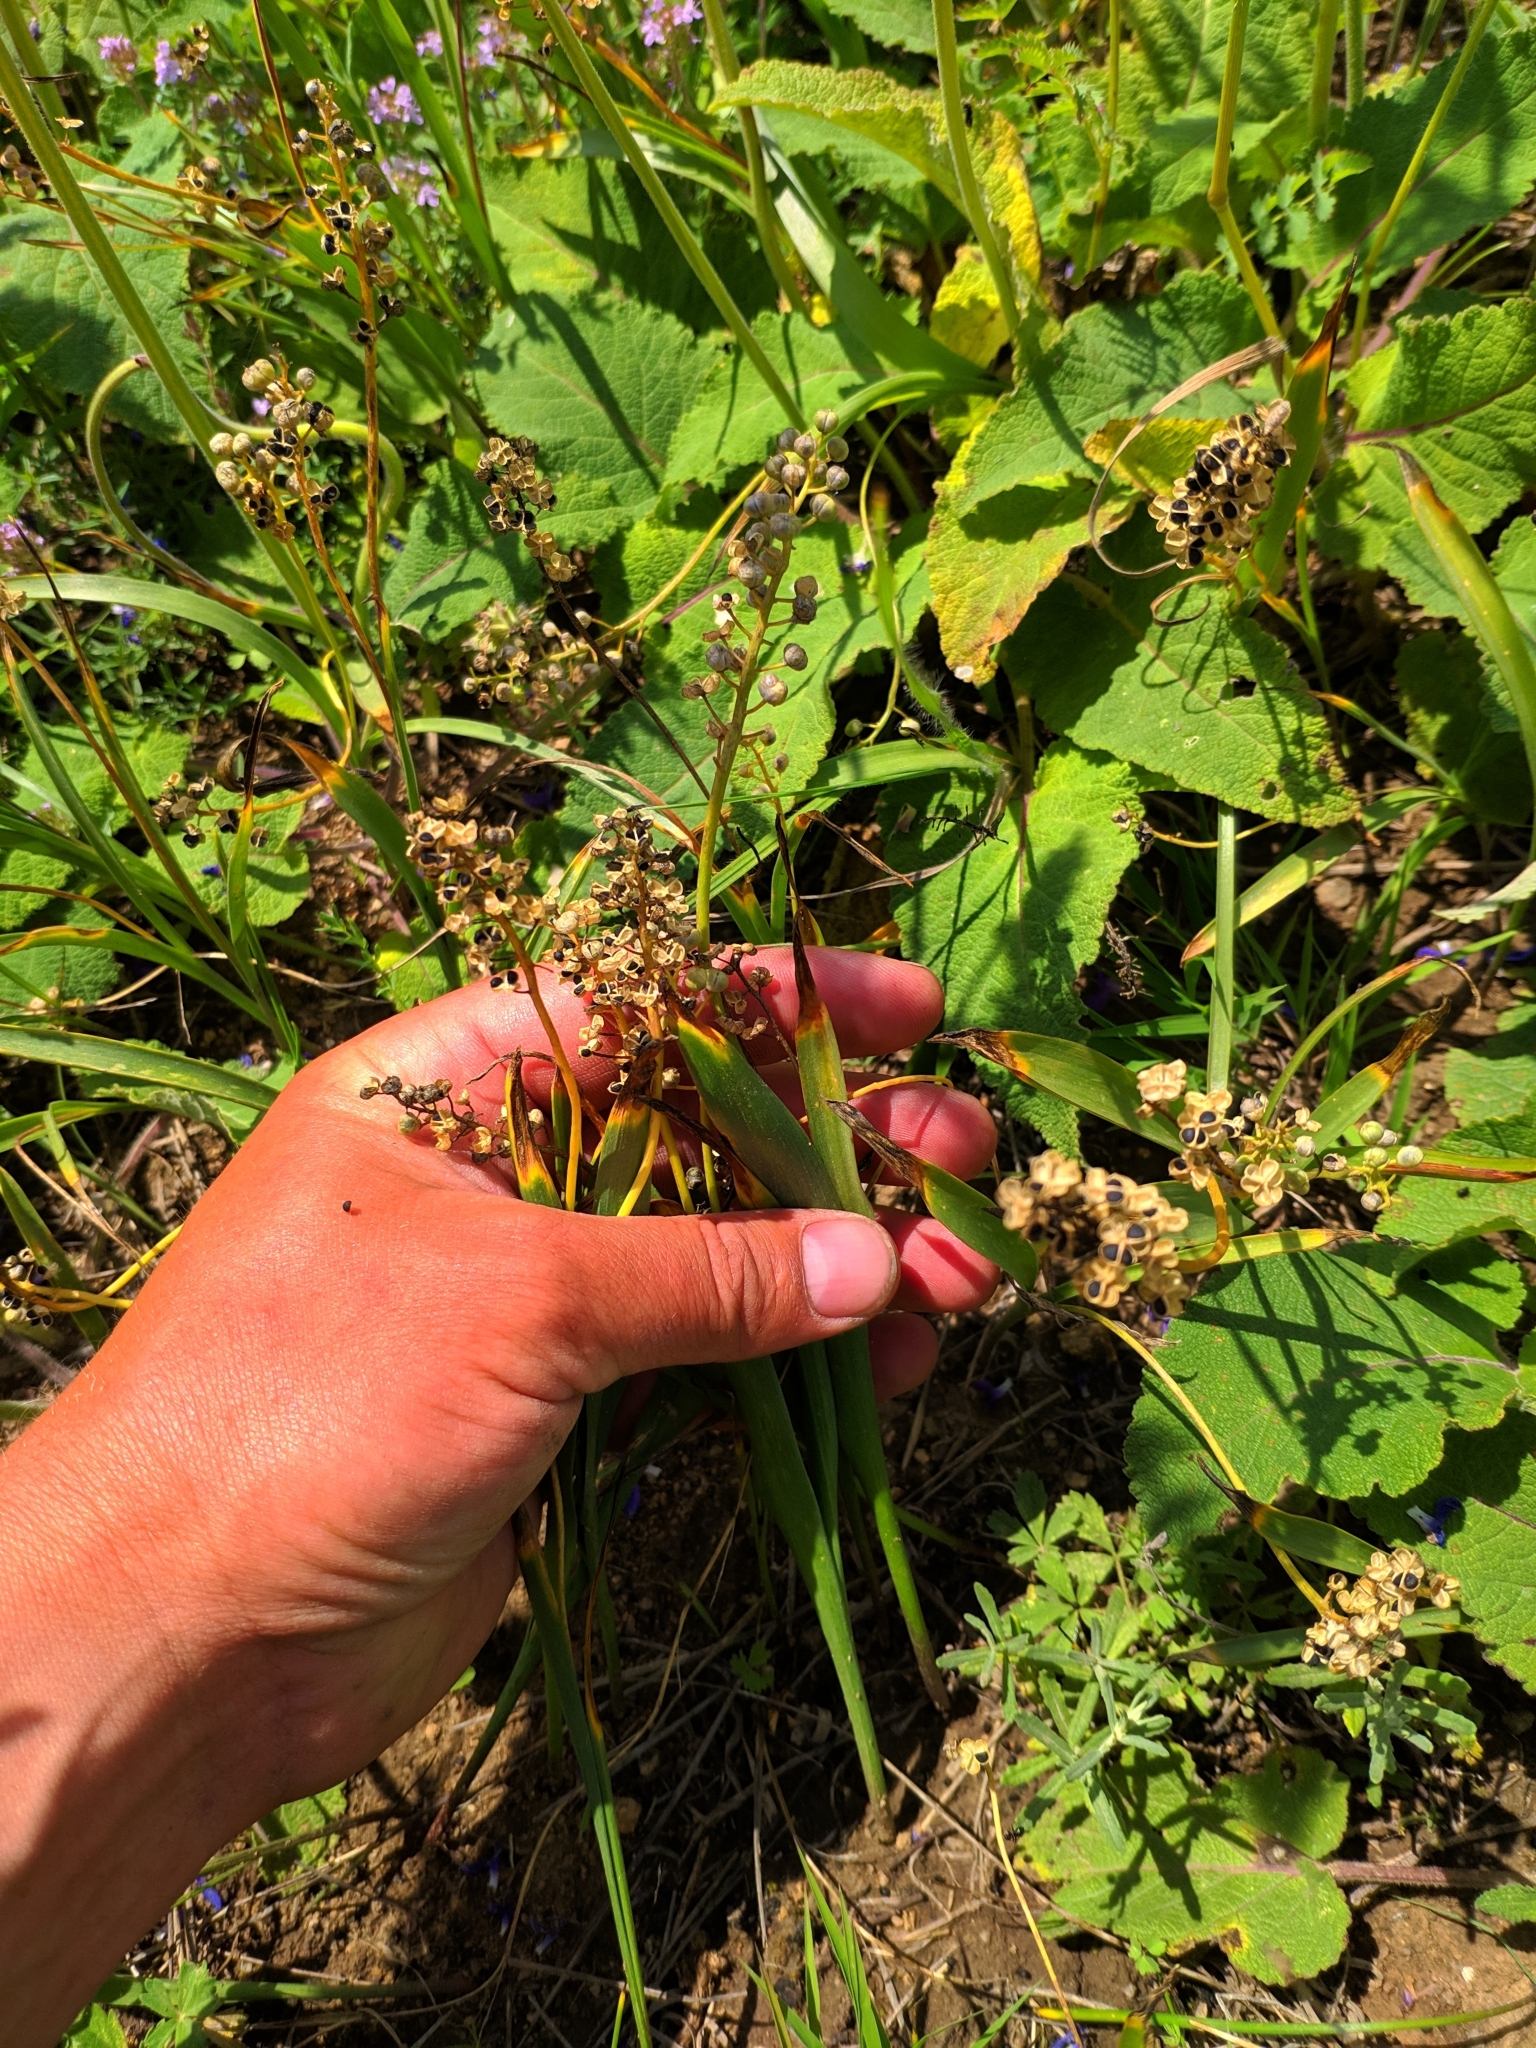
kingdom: Plantae
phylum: Tracheophyta
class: Liliopsida
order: Asparagales
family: Asparagaceae
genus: Hyacinthella
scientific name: Hyacinthella leucophaea
